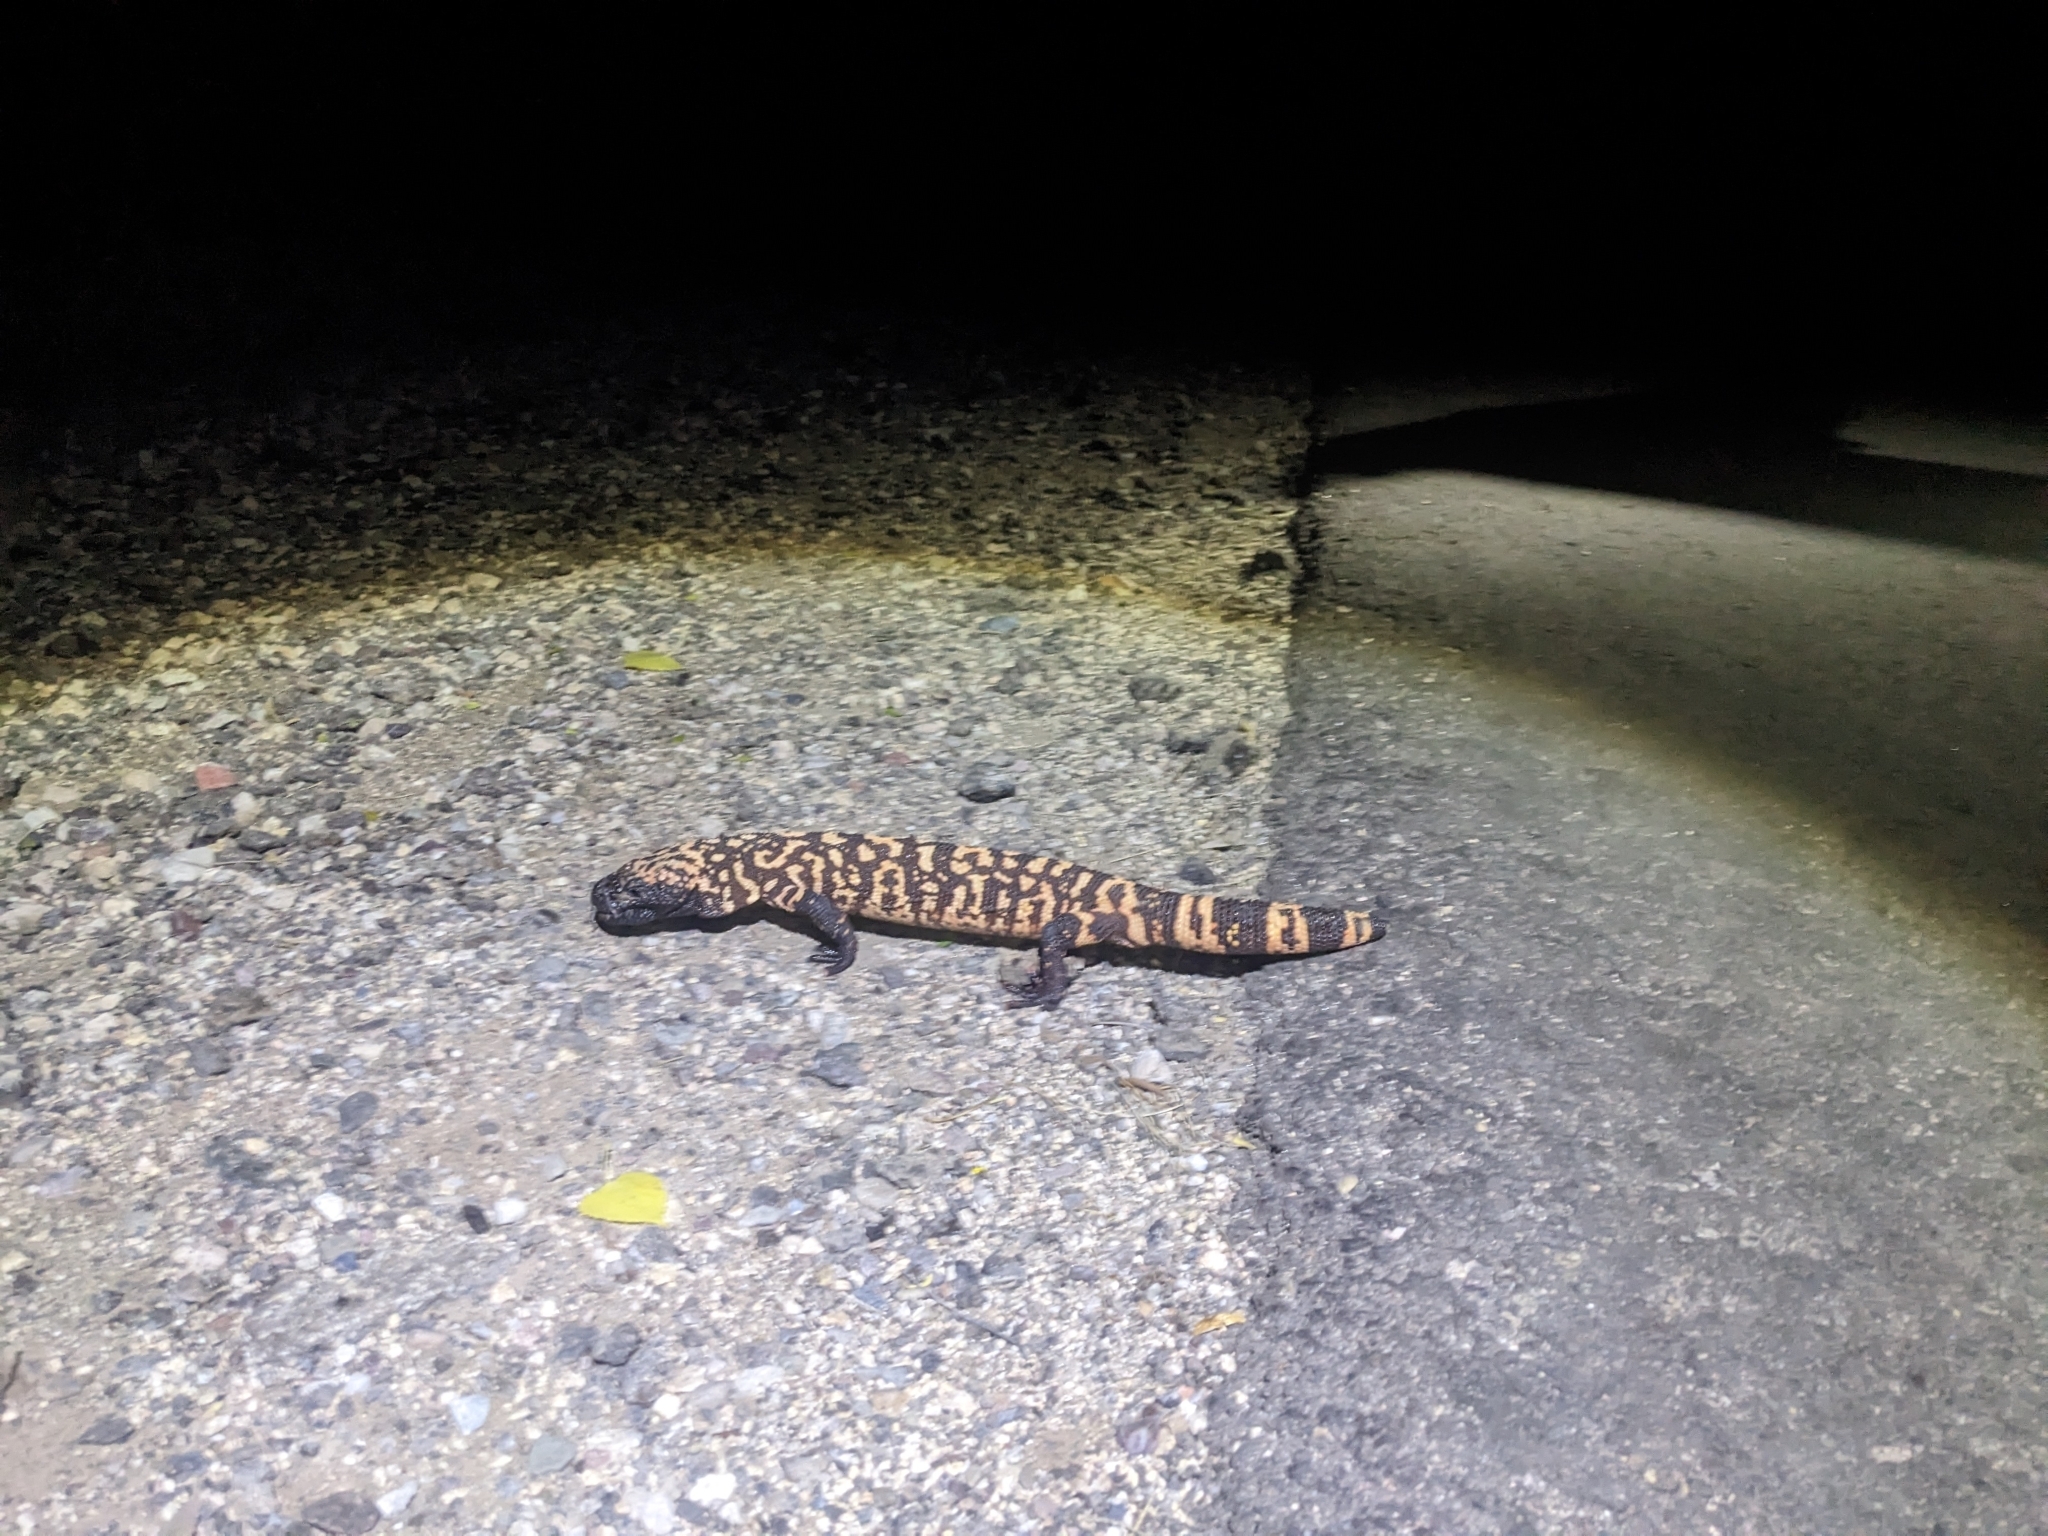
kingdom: Animalia
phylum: Chordata
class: Squamata
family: Helodermatidae
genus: Heloderma
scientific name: Heloderma suspectum
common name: Gila monster
